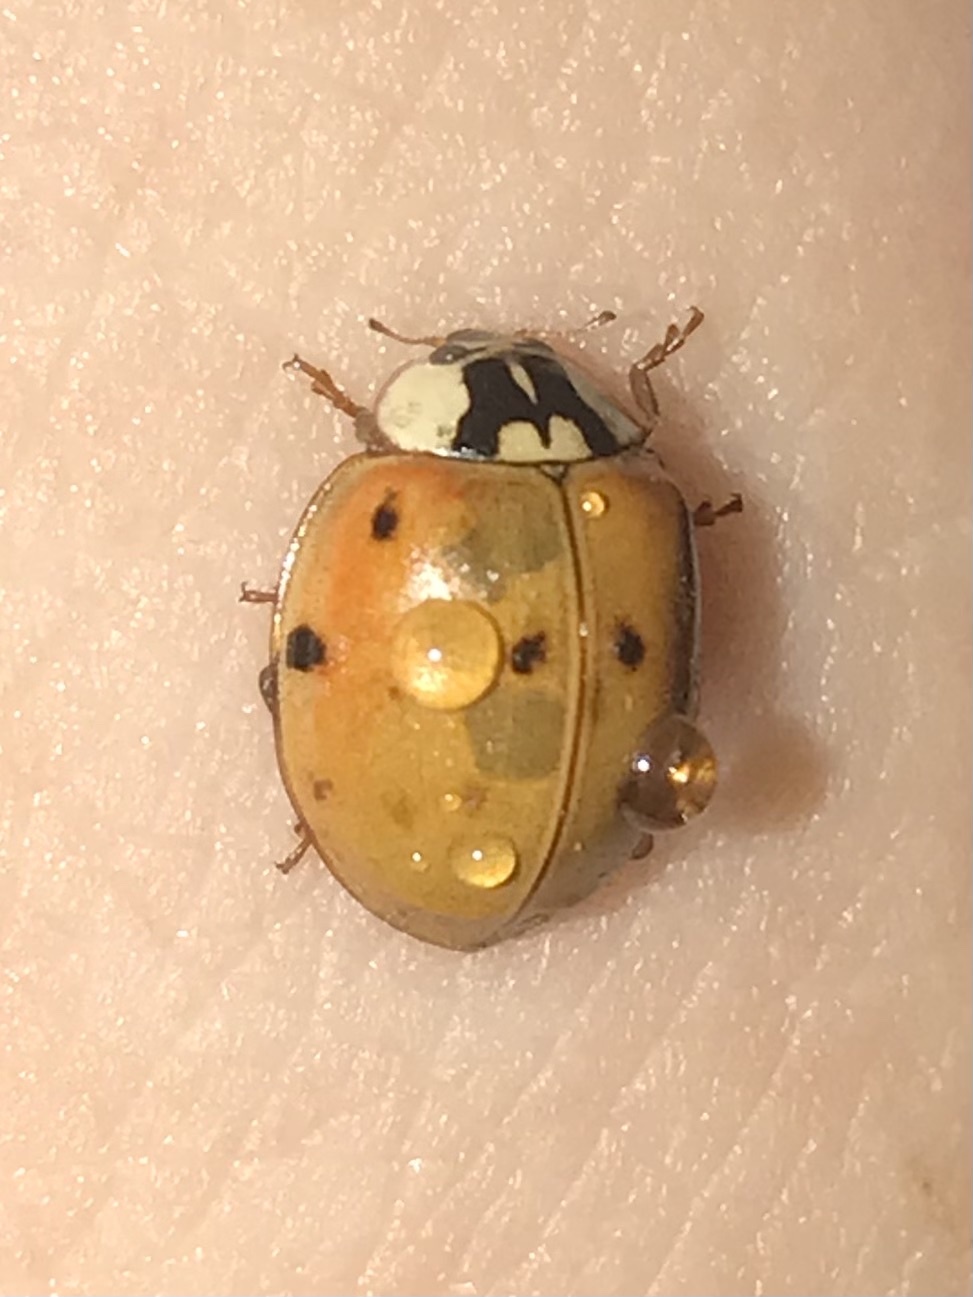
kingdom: Animalia
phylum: Arthropoda
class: Insecta
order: Coleoptera
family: Coccinellidae
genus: Harmonia
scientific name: Harmonia axyridis
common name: Harlequin ladybird
